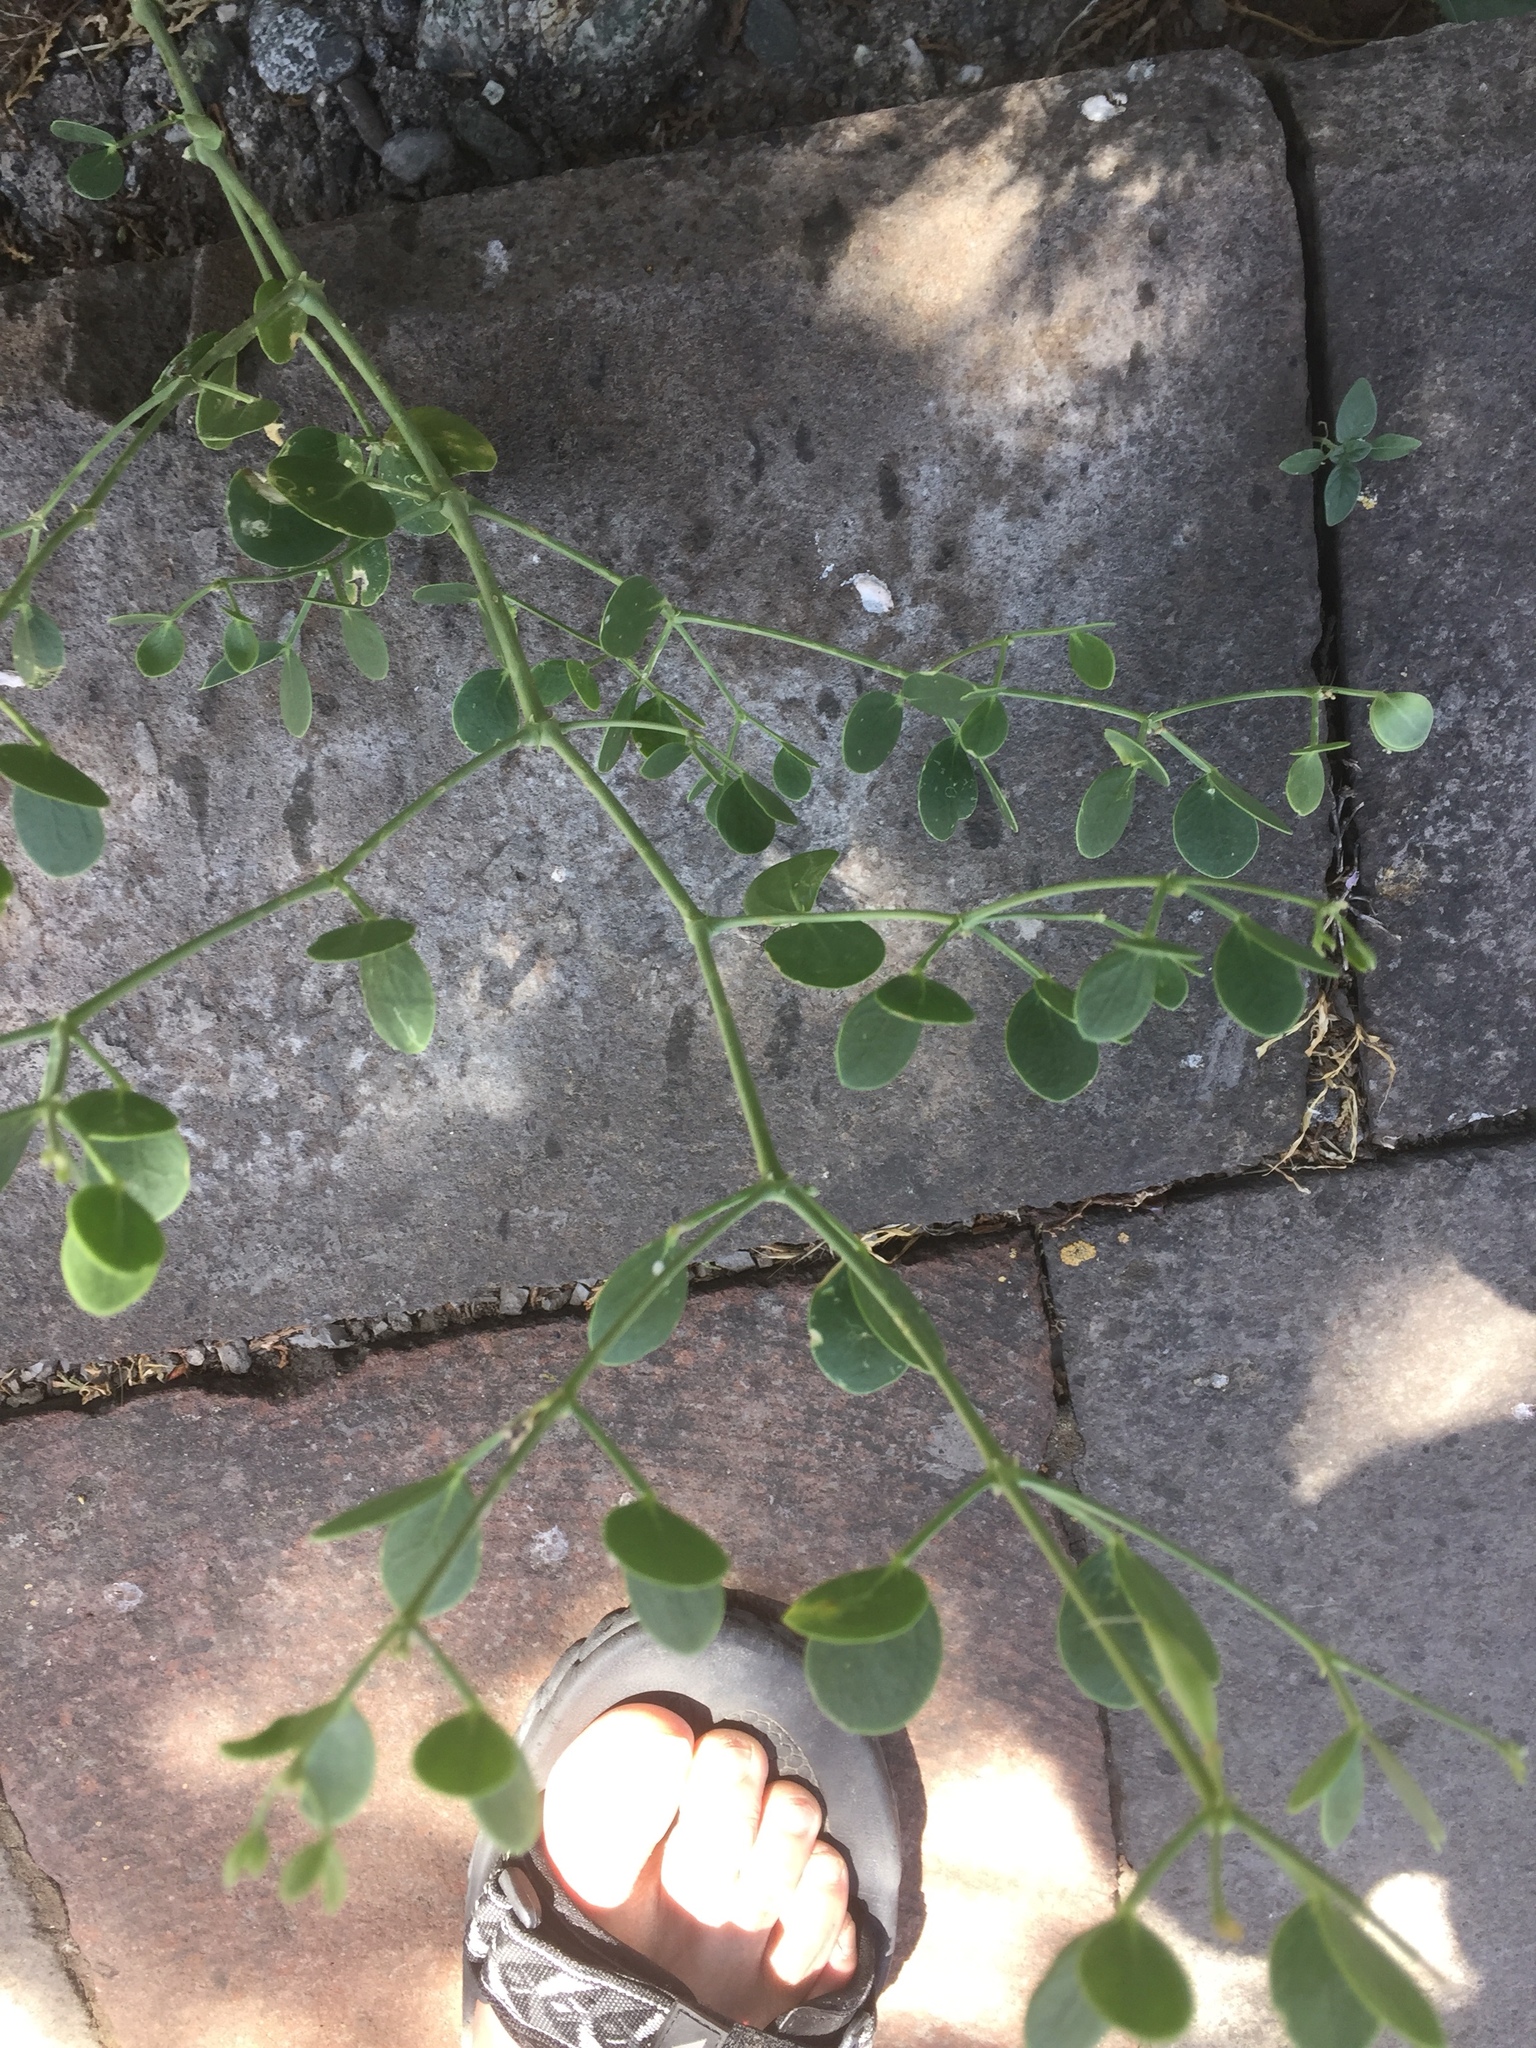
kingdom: Plantae
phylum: Tracheophyta
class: Magnoliopsida
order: Zygophyllales
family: Zygophyllaceae
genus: Zygophyllum
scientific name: Zygophyllum fabago
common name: Syrian beancaper
